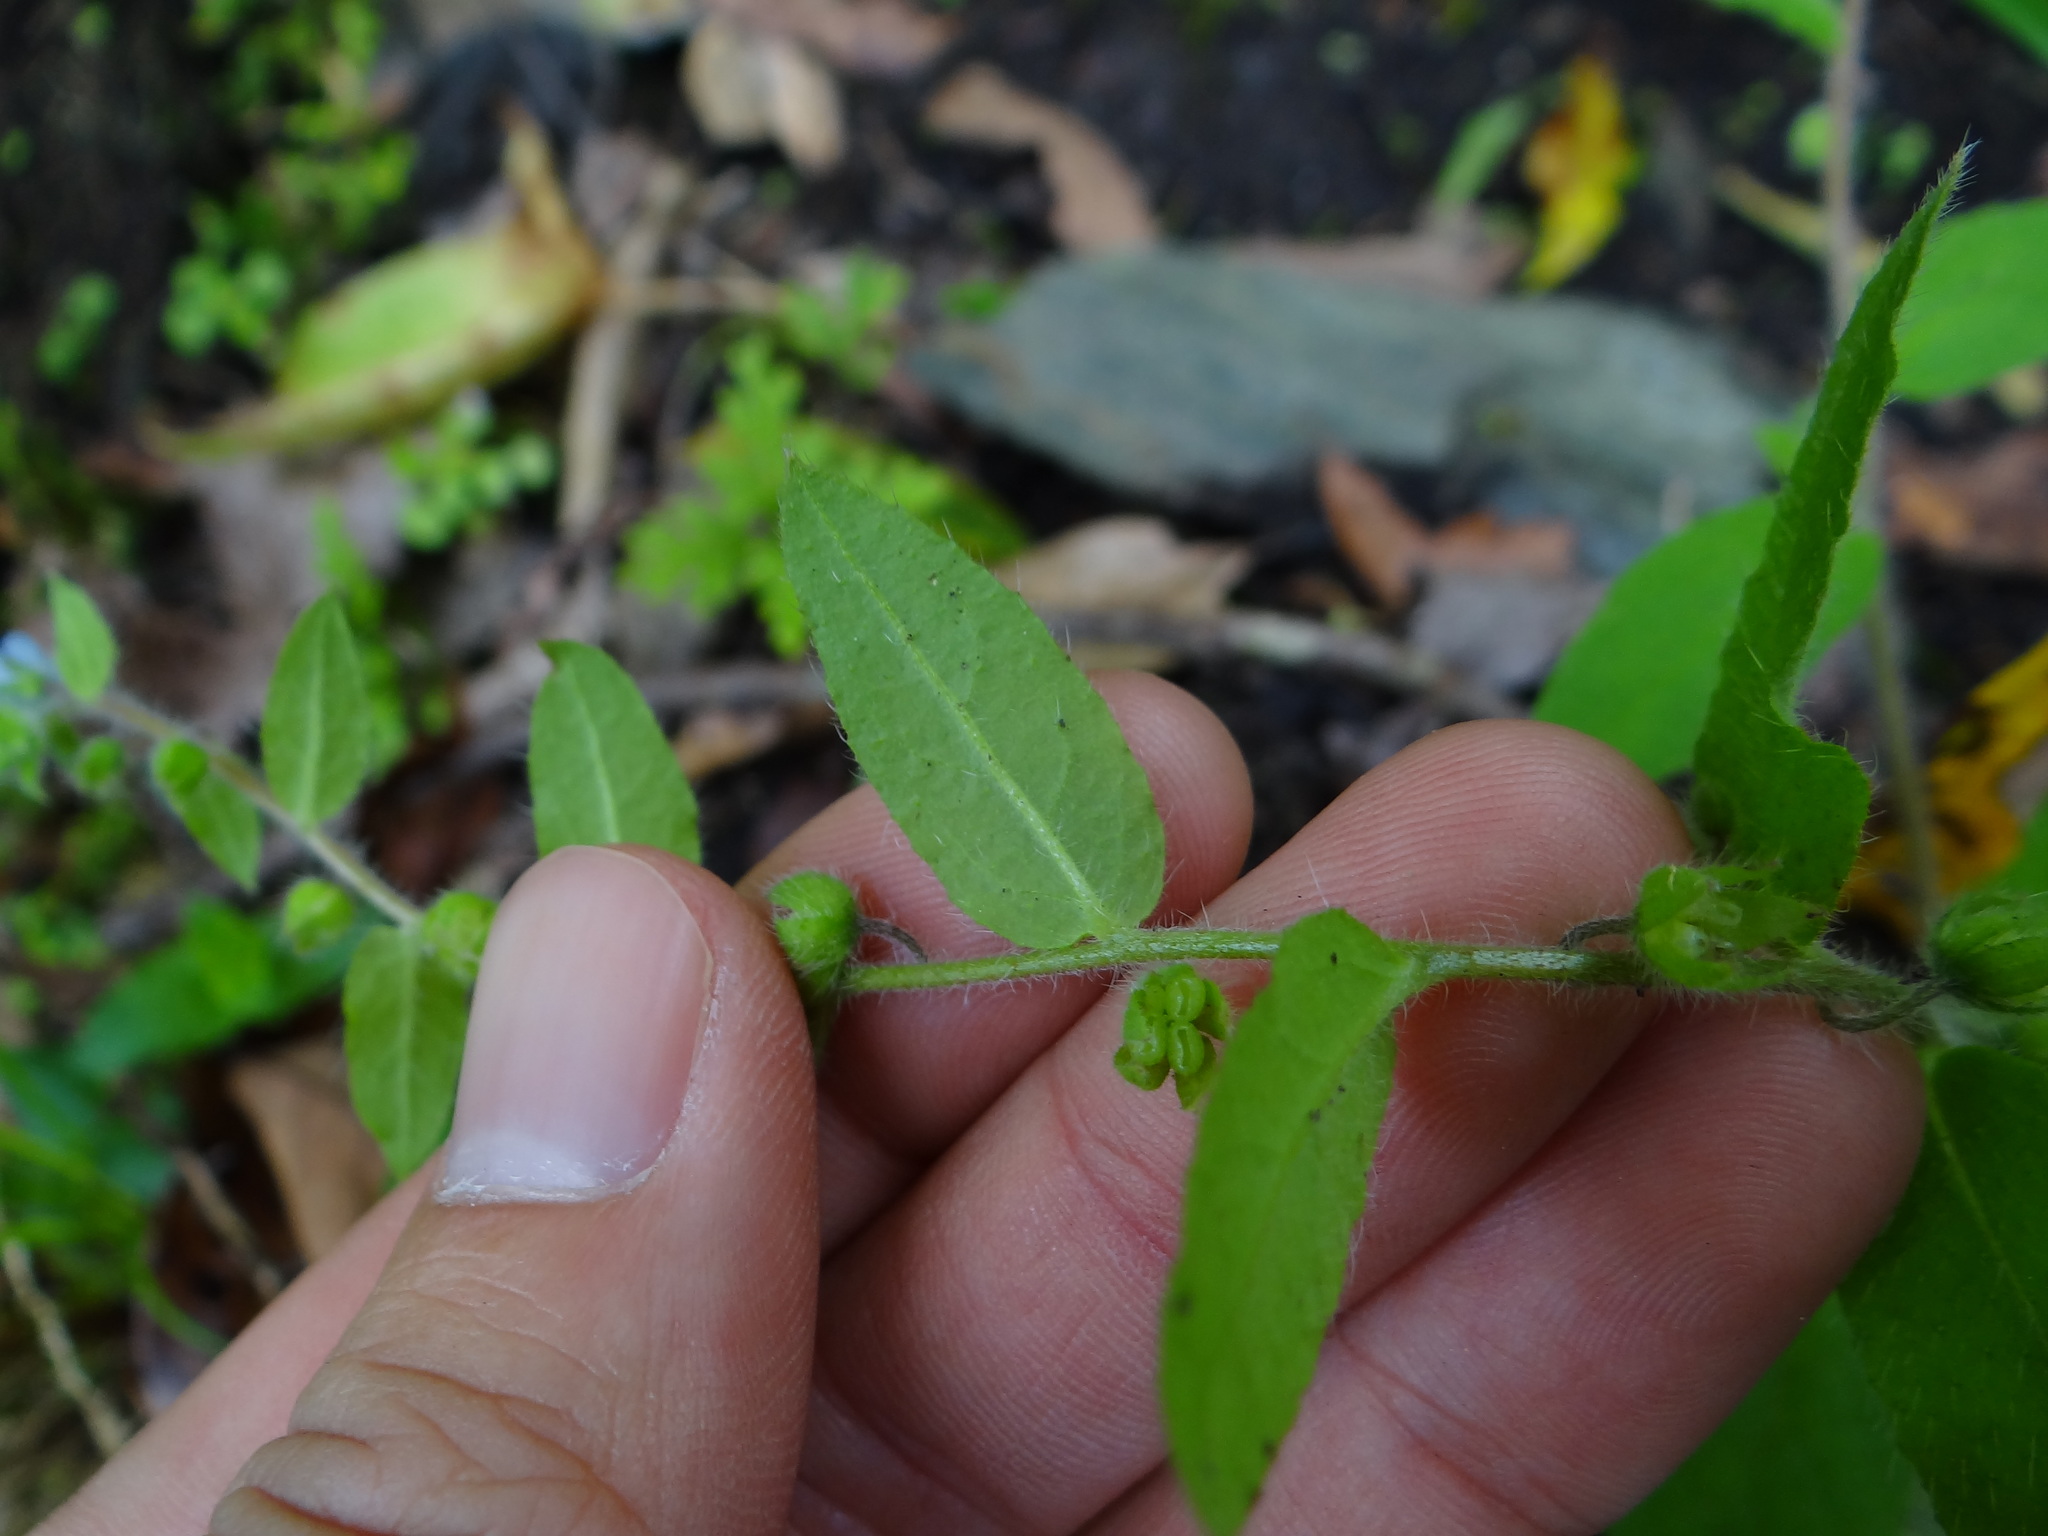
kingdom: Plantae
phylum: Tracheophyta
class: Magnoliopsida
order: Boraginales
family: Boraginaceae
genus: Thyrocarpus
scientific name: Thyrocarpus sampsonii
